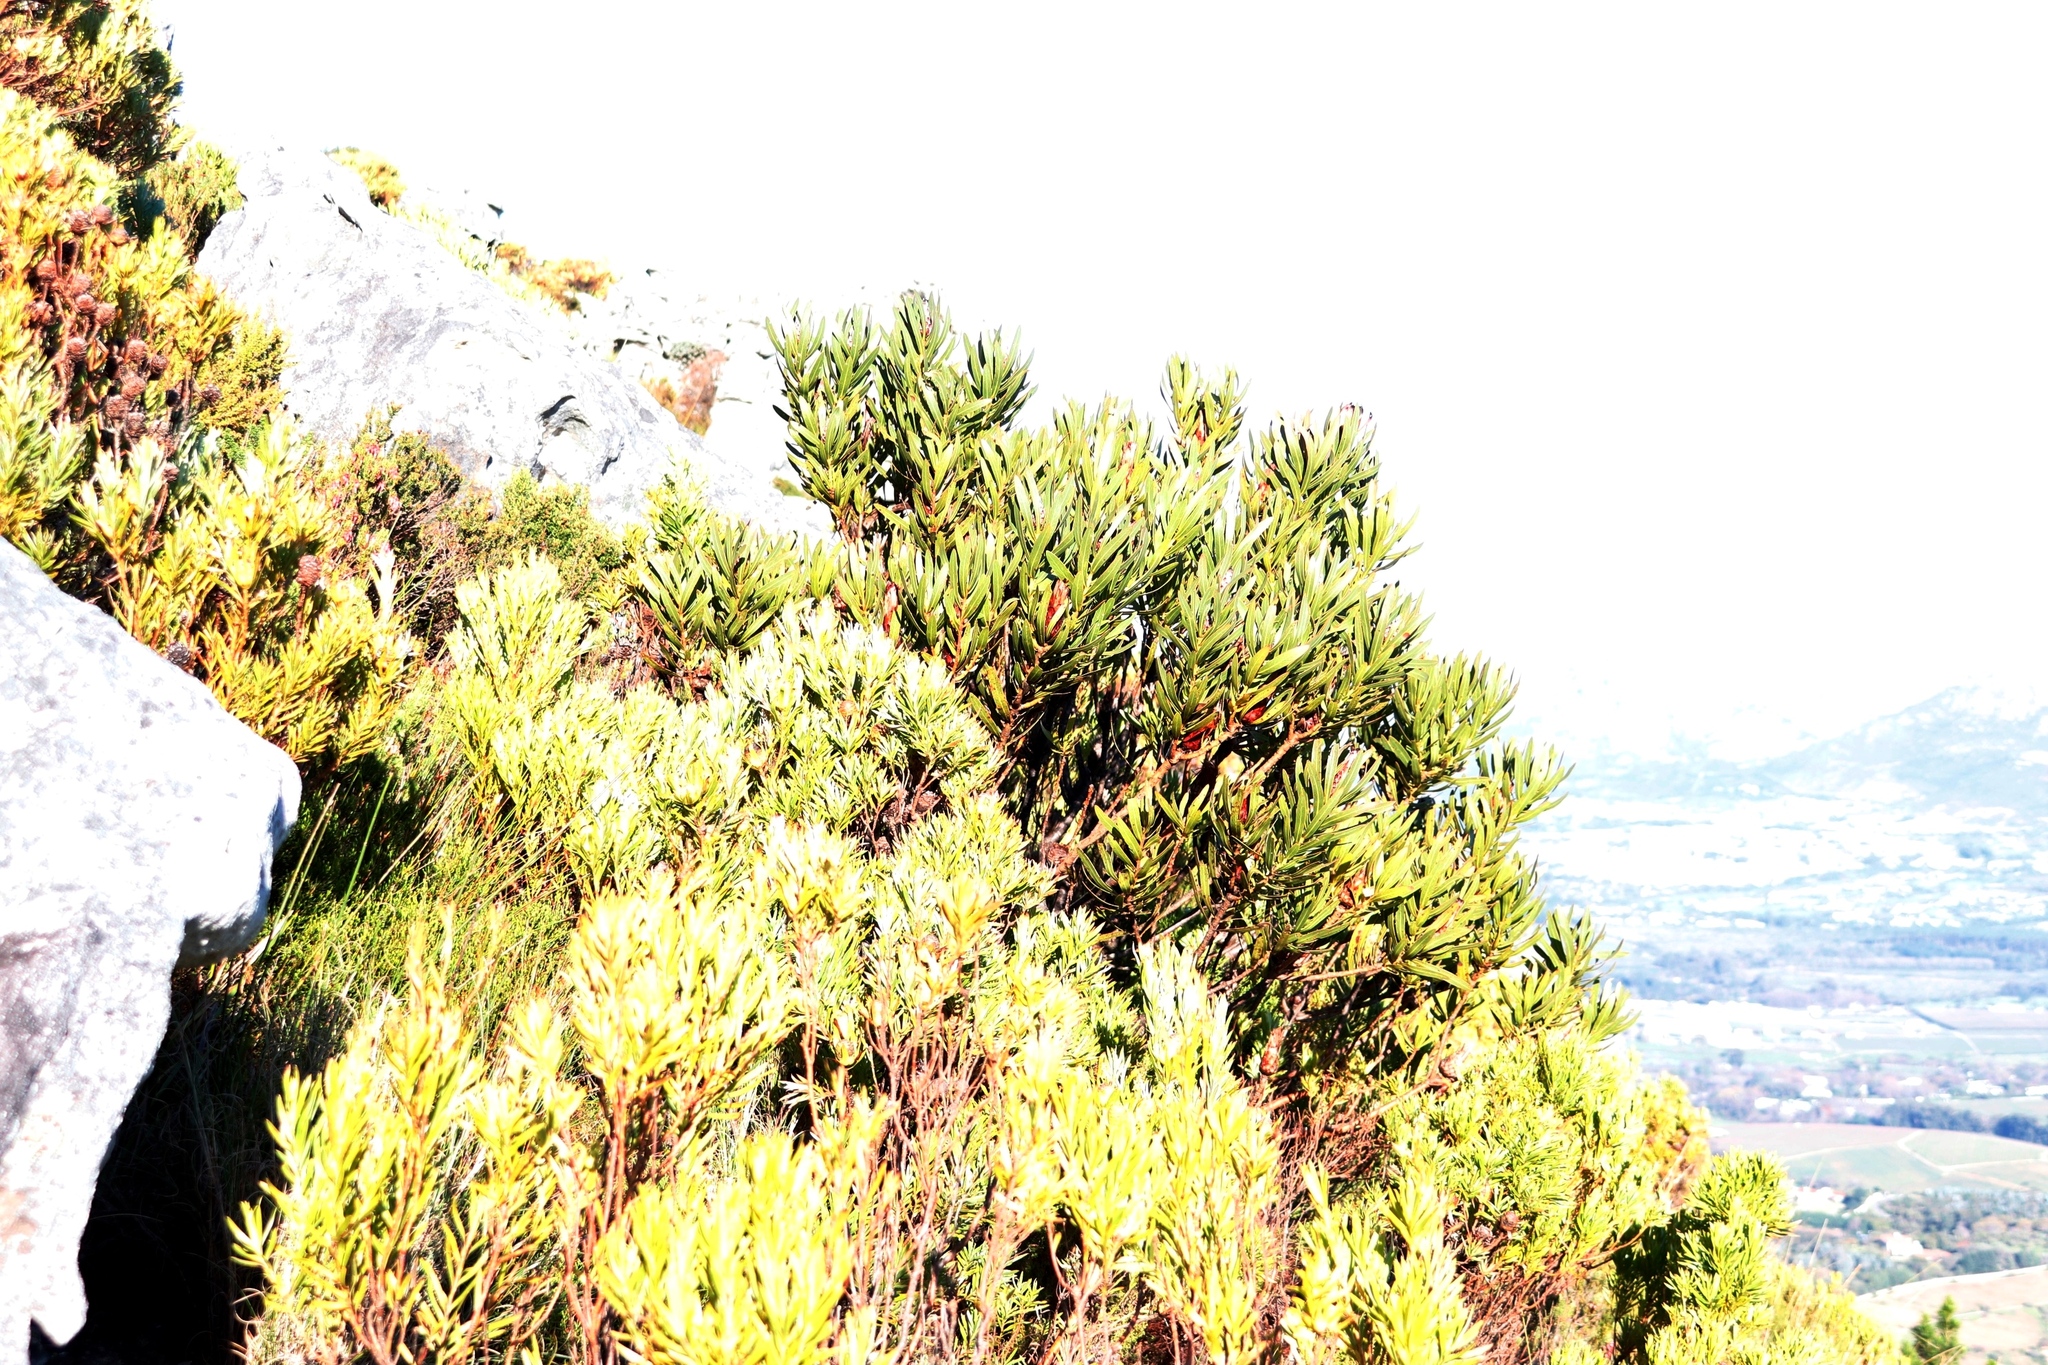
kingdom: Plantae
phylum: Tracheophyta
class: Magnoliopsida
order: Proteales
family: Proteaceae
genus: Protea
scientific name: Protea lepidocarpodendron
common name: Black-bearded protea
